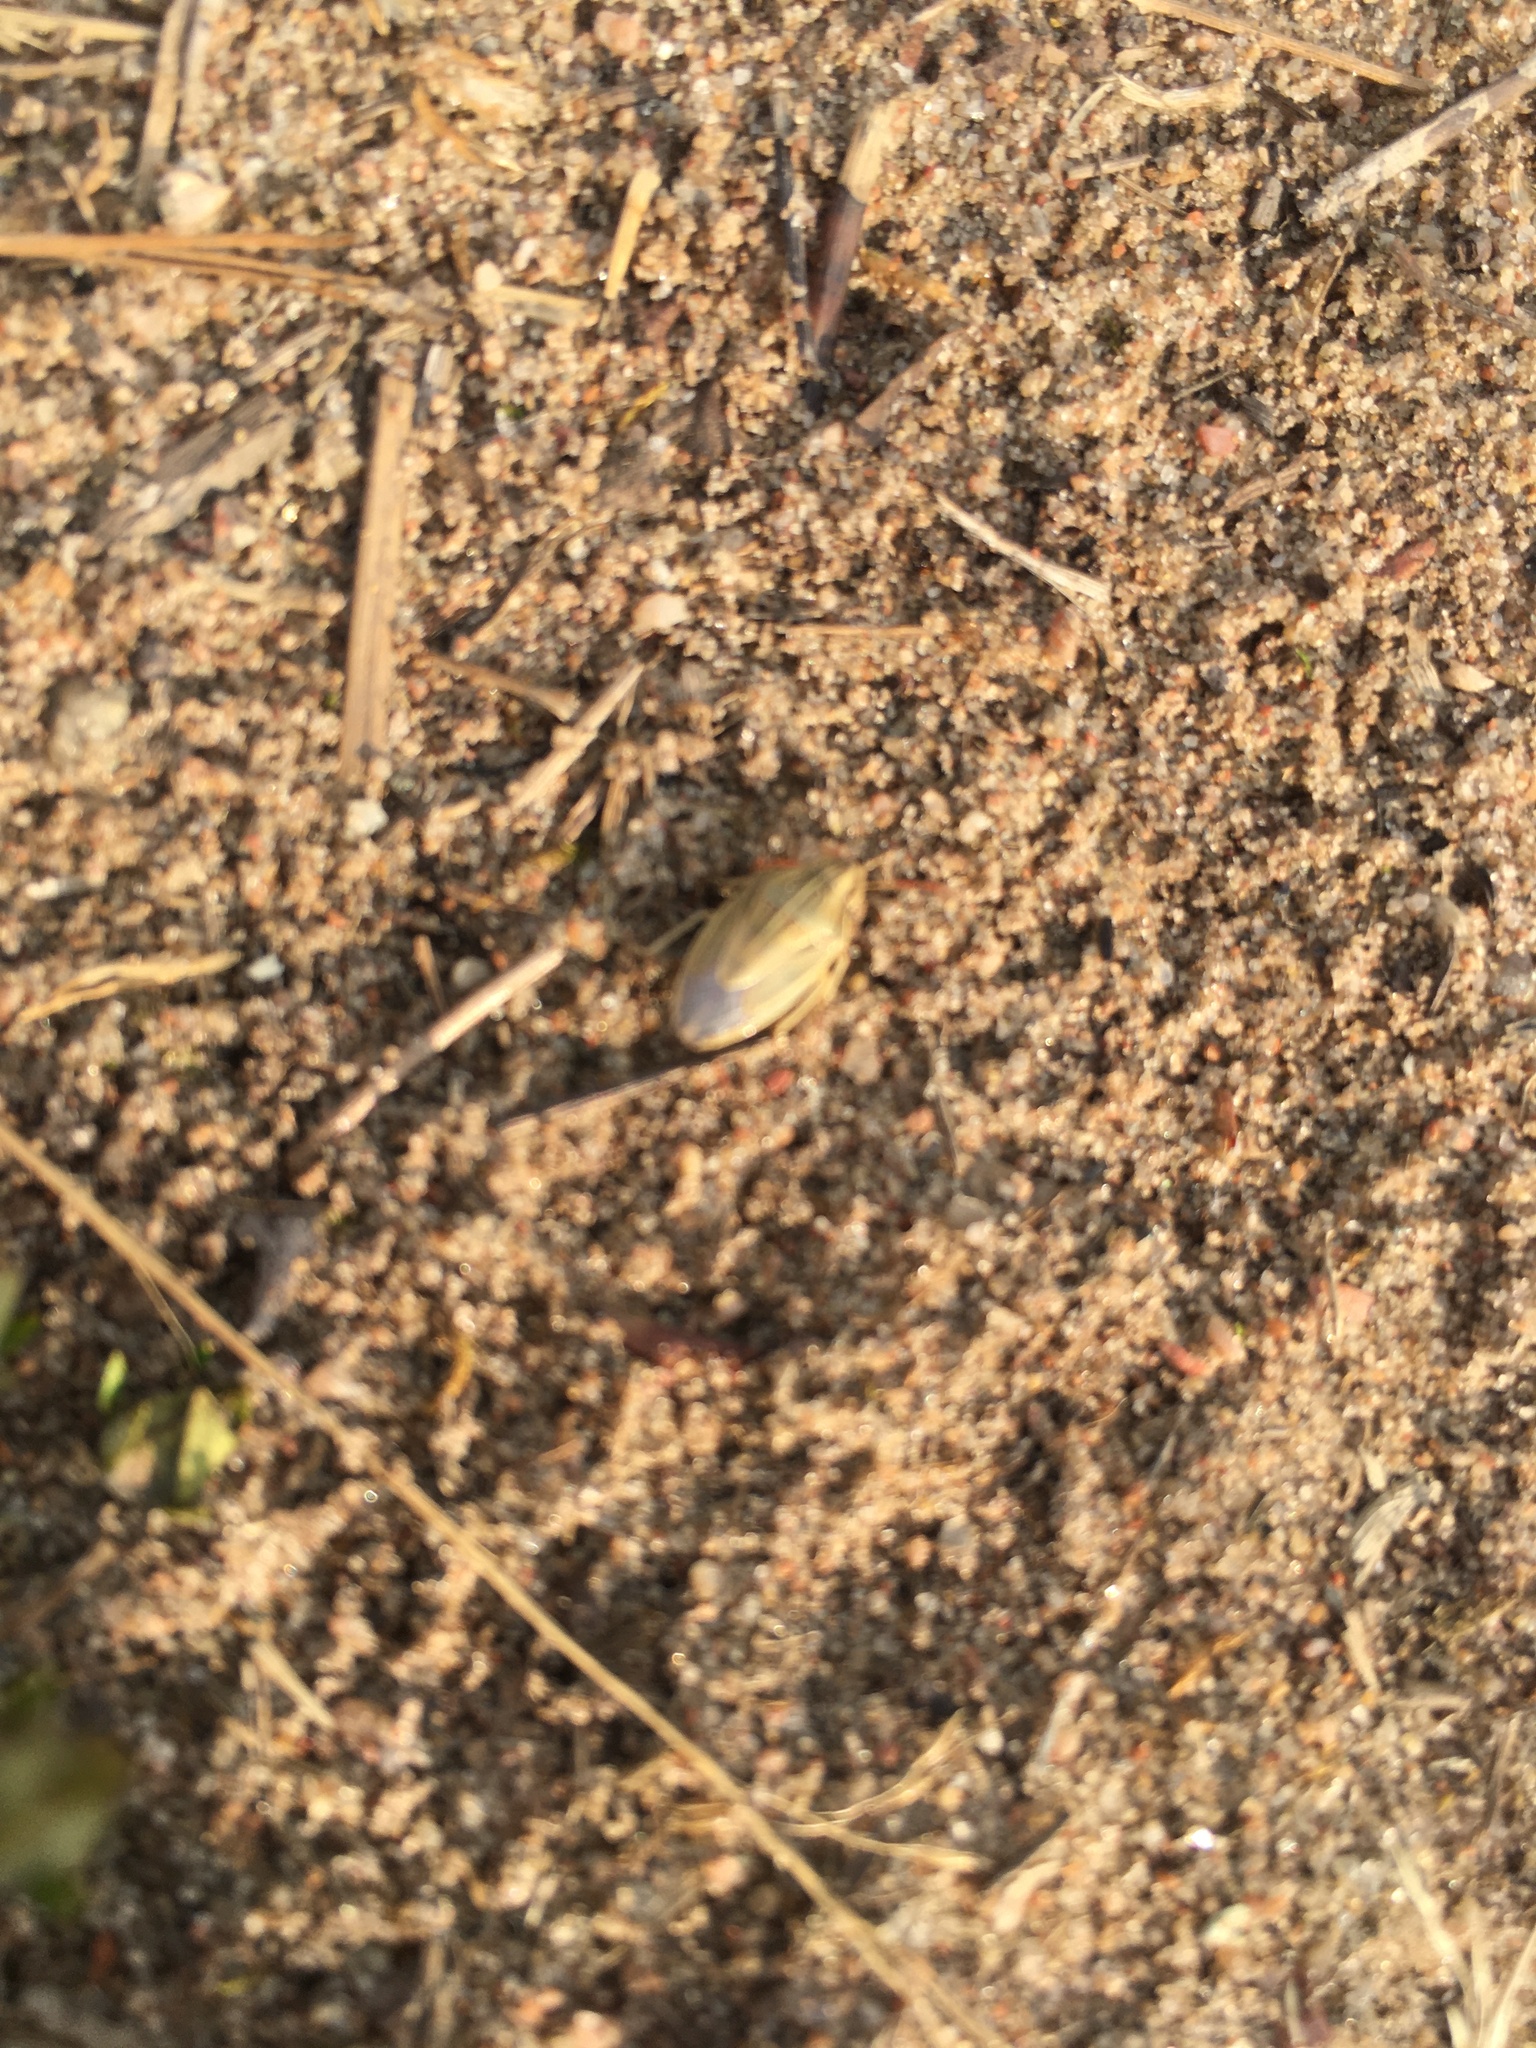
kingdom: Animalia
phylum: Arthropoda
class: Insecta
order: Hemiptera
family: Pentatomidae
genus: Aelia
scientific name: Aelia acuminata
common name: Bishop's mitre
